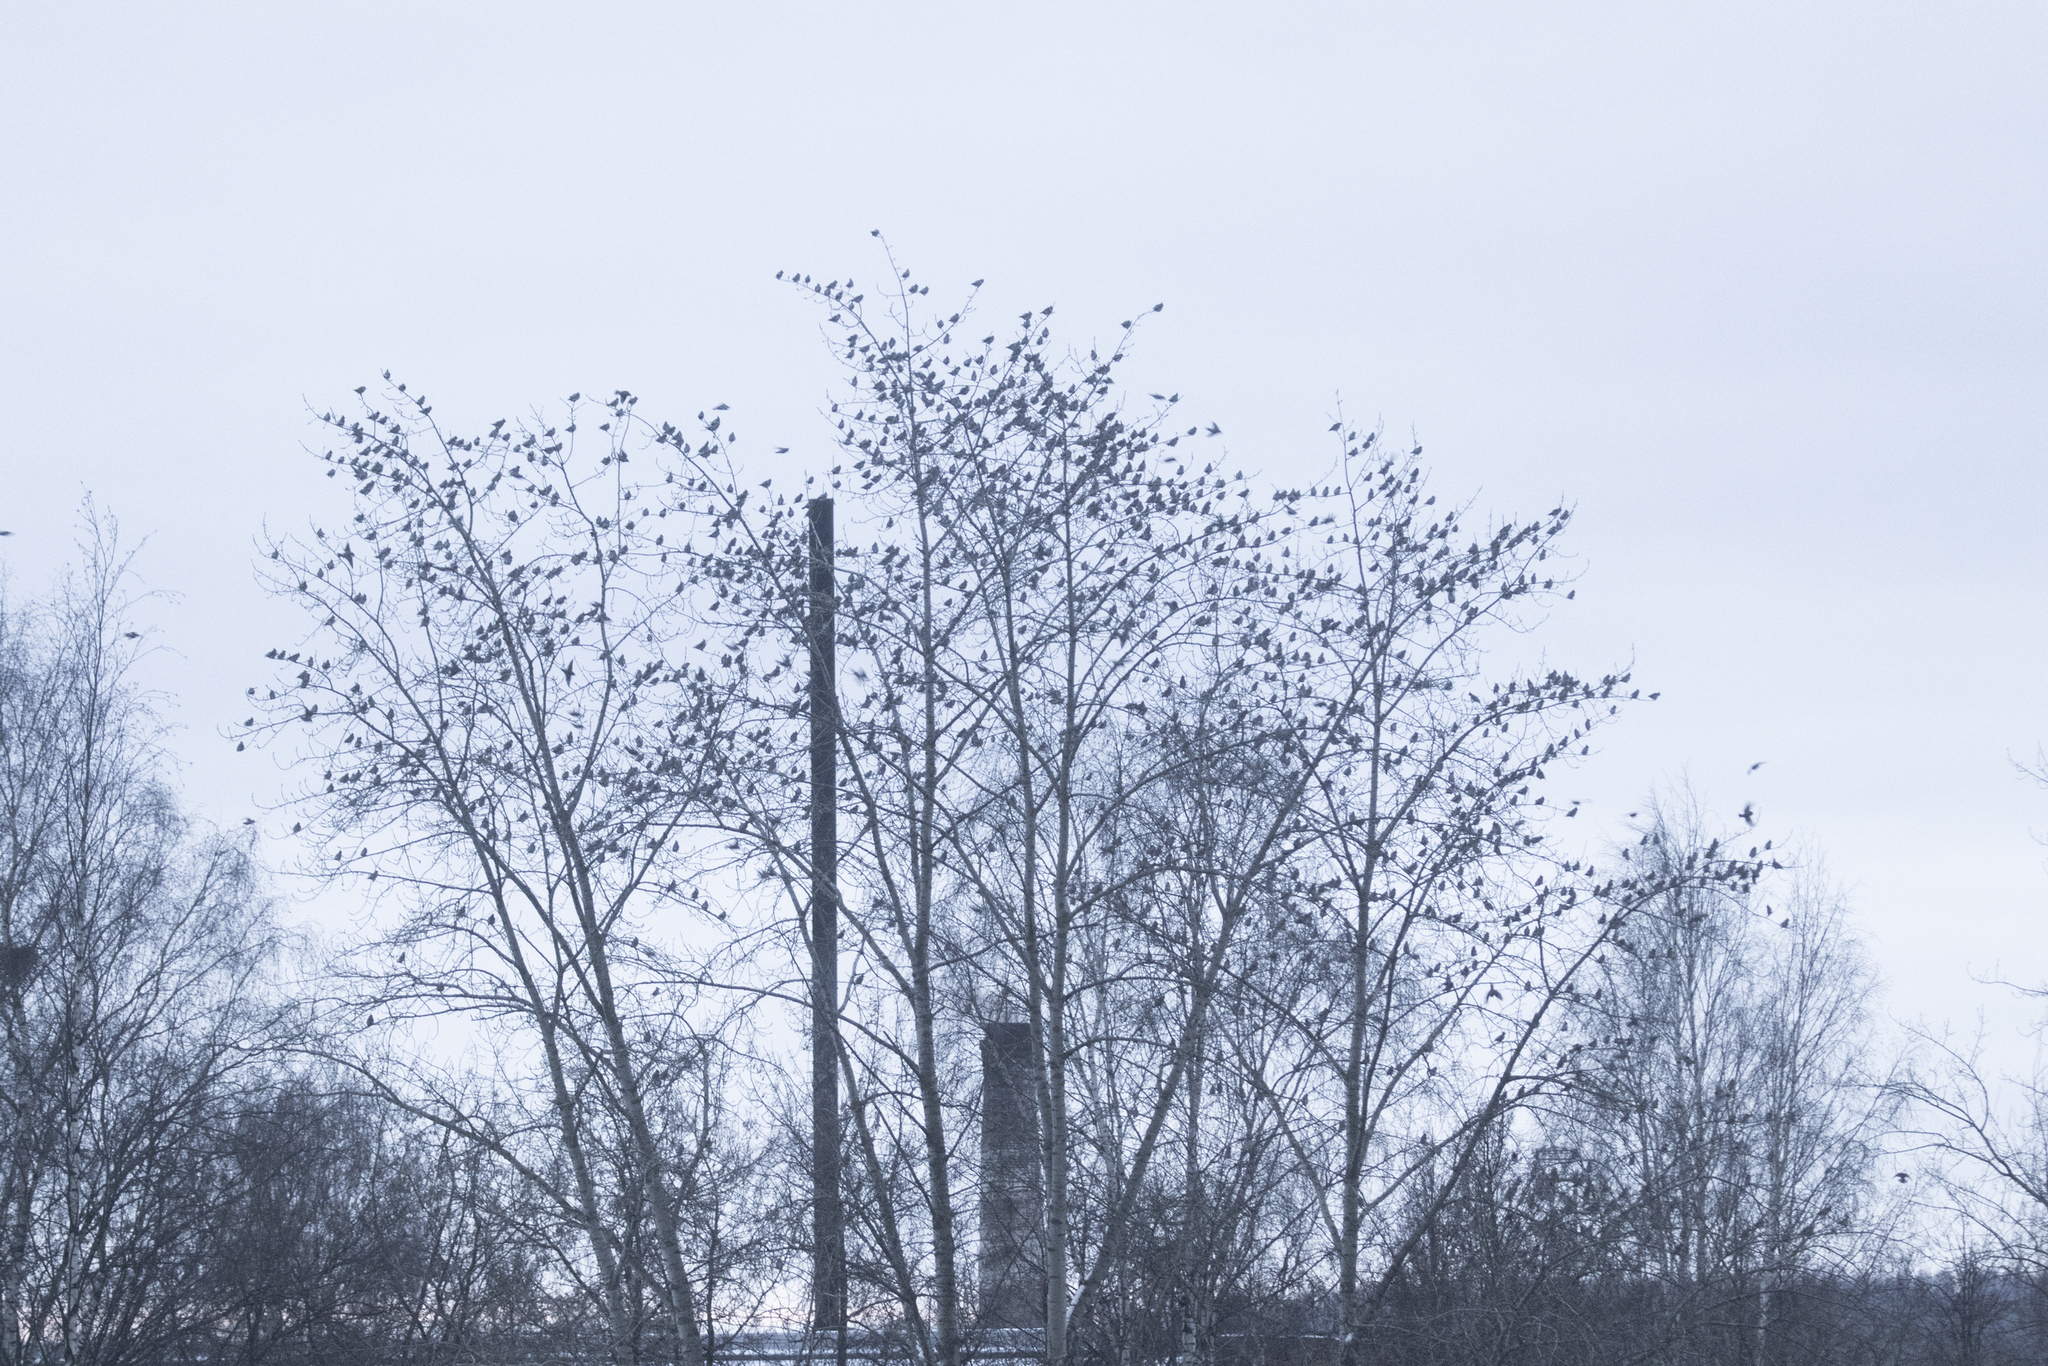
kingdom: Animalia
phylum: Chordata
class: Aves
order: Passeriformes
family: Bombycillidae
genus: Bombycilla
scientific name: Bombycilla garrulus
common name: Bohemian waxwing
